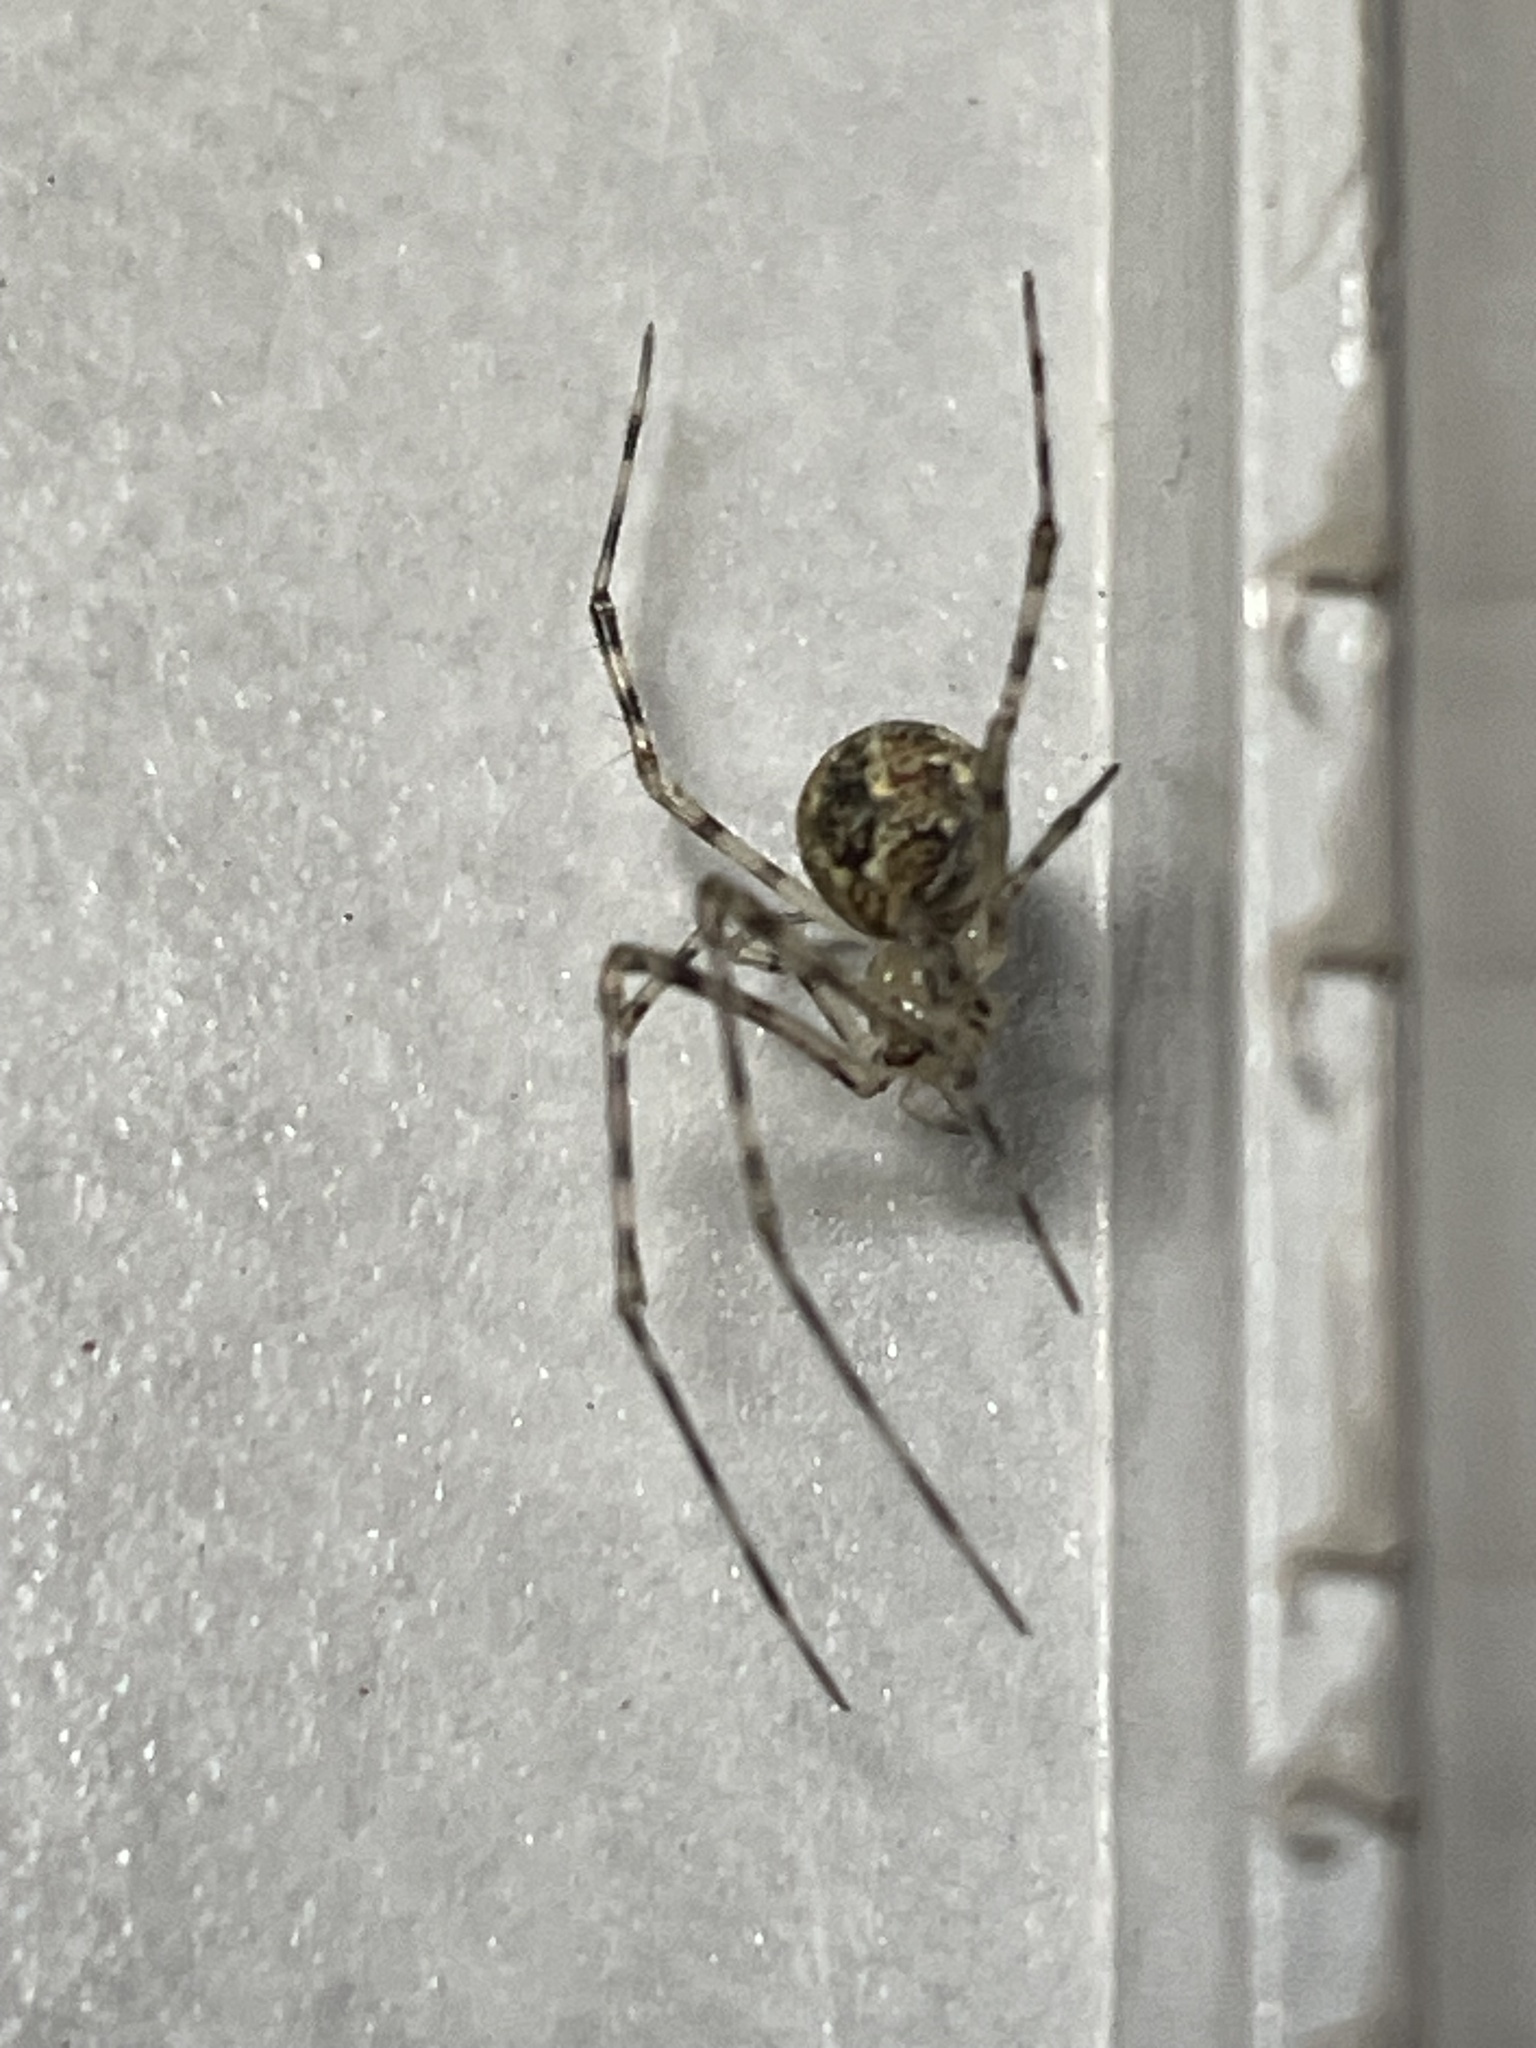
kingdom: Animalia
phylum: Arthropoda
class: Arachnida
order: Araneae
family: Theridiidae
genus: Cryptachaea
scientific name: Cryptachaea gigantipes
